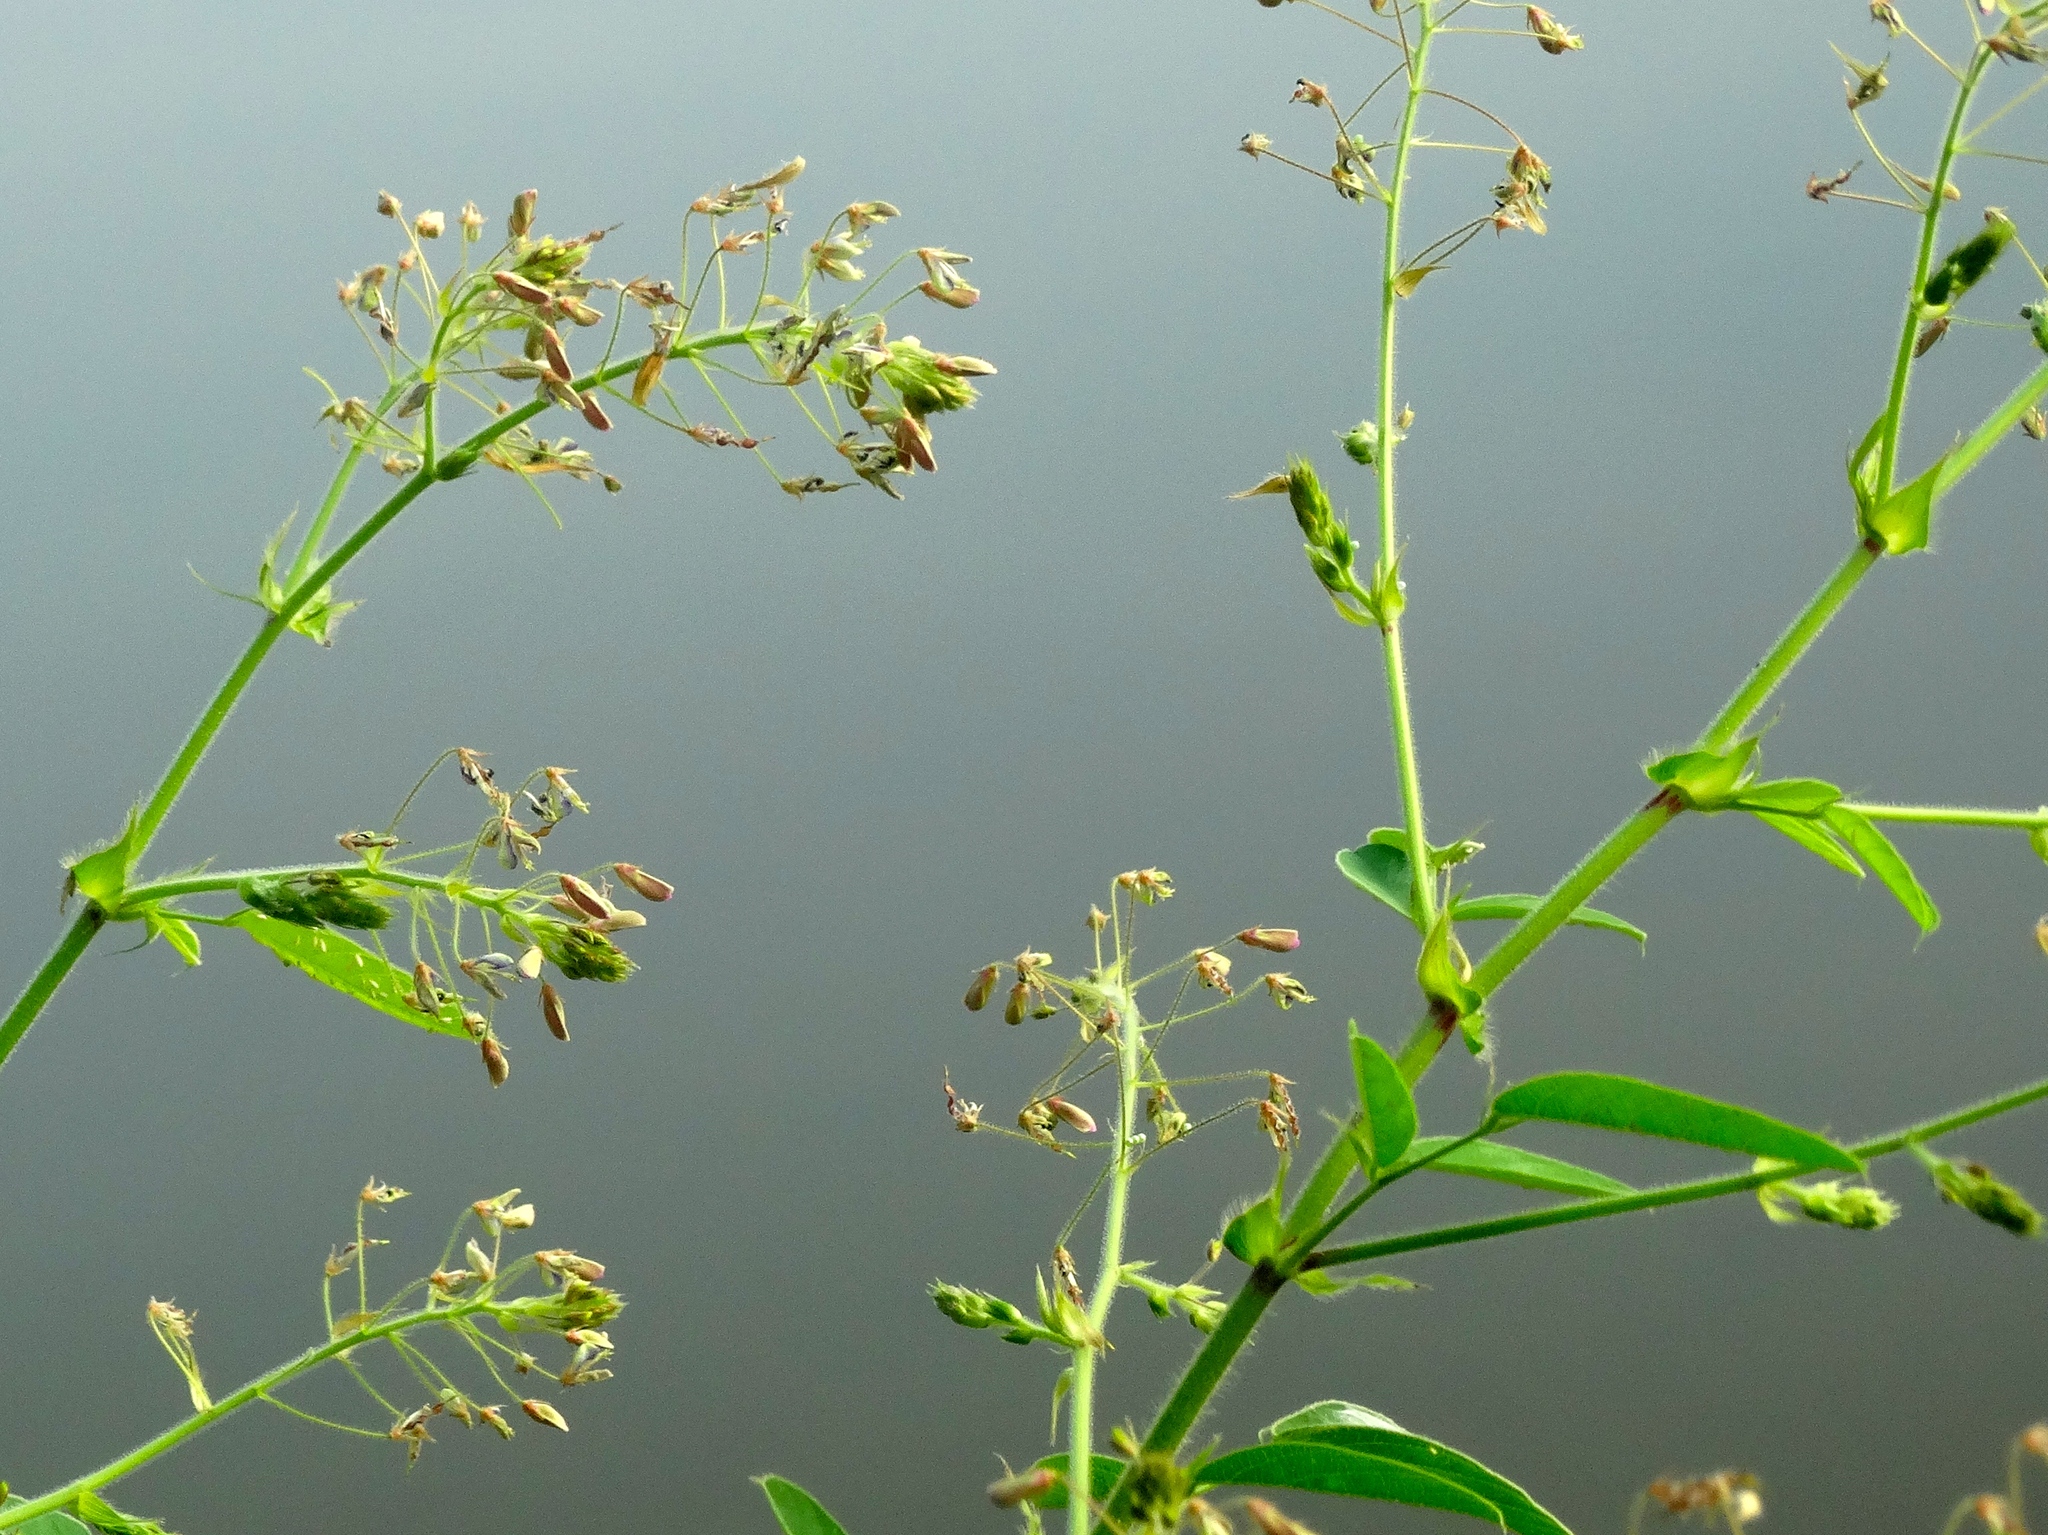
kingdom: Plantae
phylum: Tracheophyta
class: Magnoliopsida
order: Fabales
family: Fabaceae
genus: Desmodium
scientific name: Desmodium tortuosum
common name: Dixie ticktrefoil
